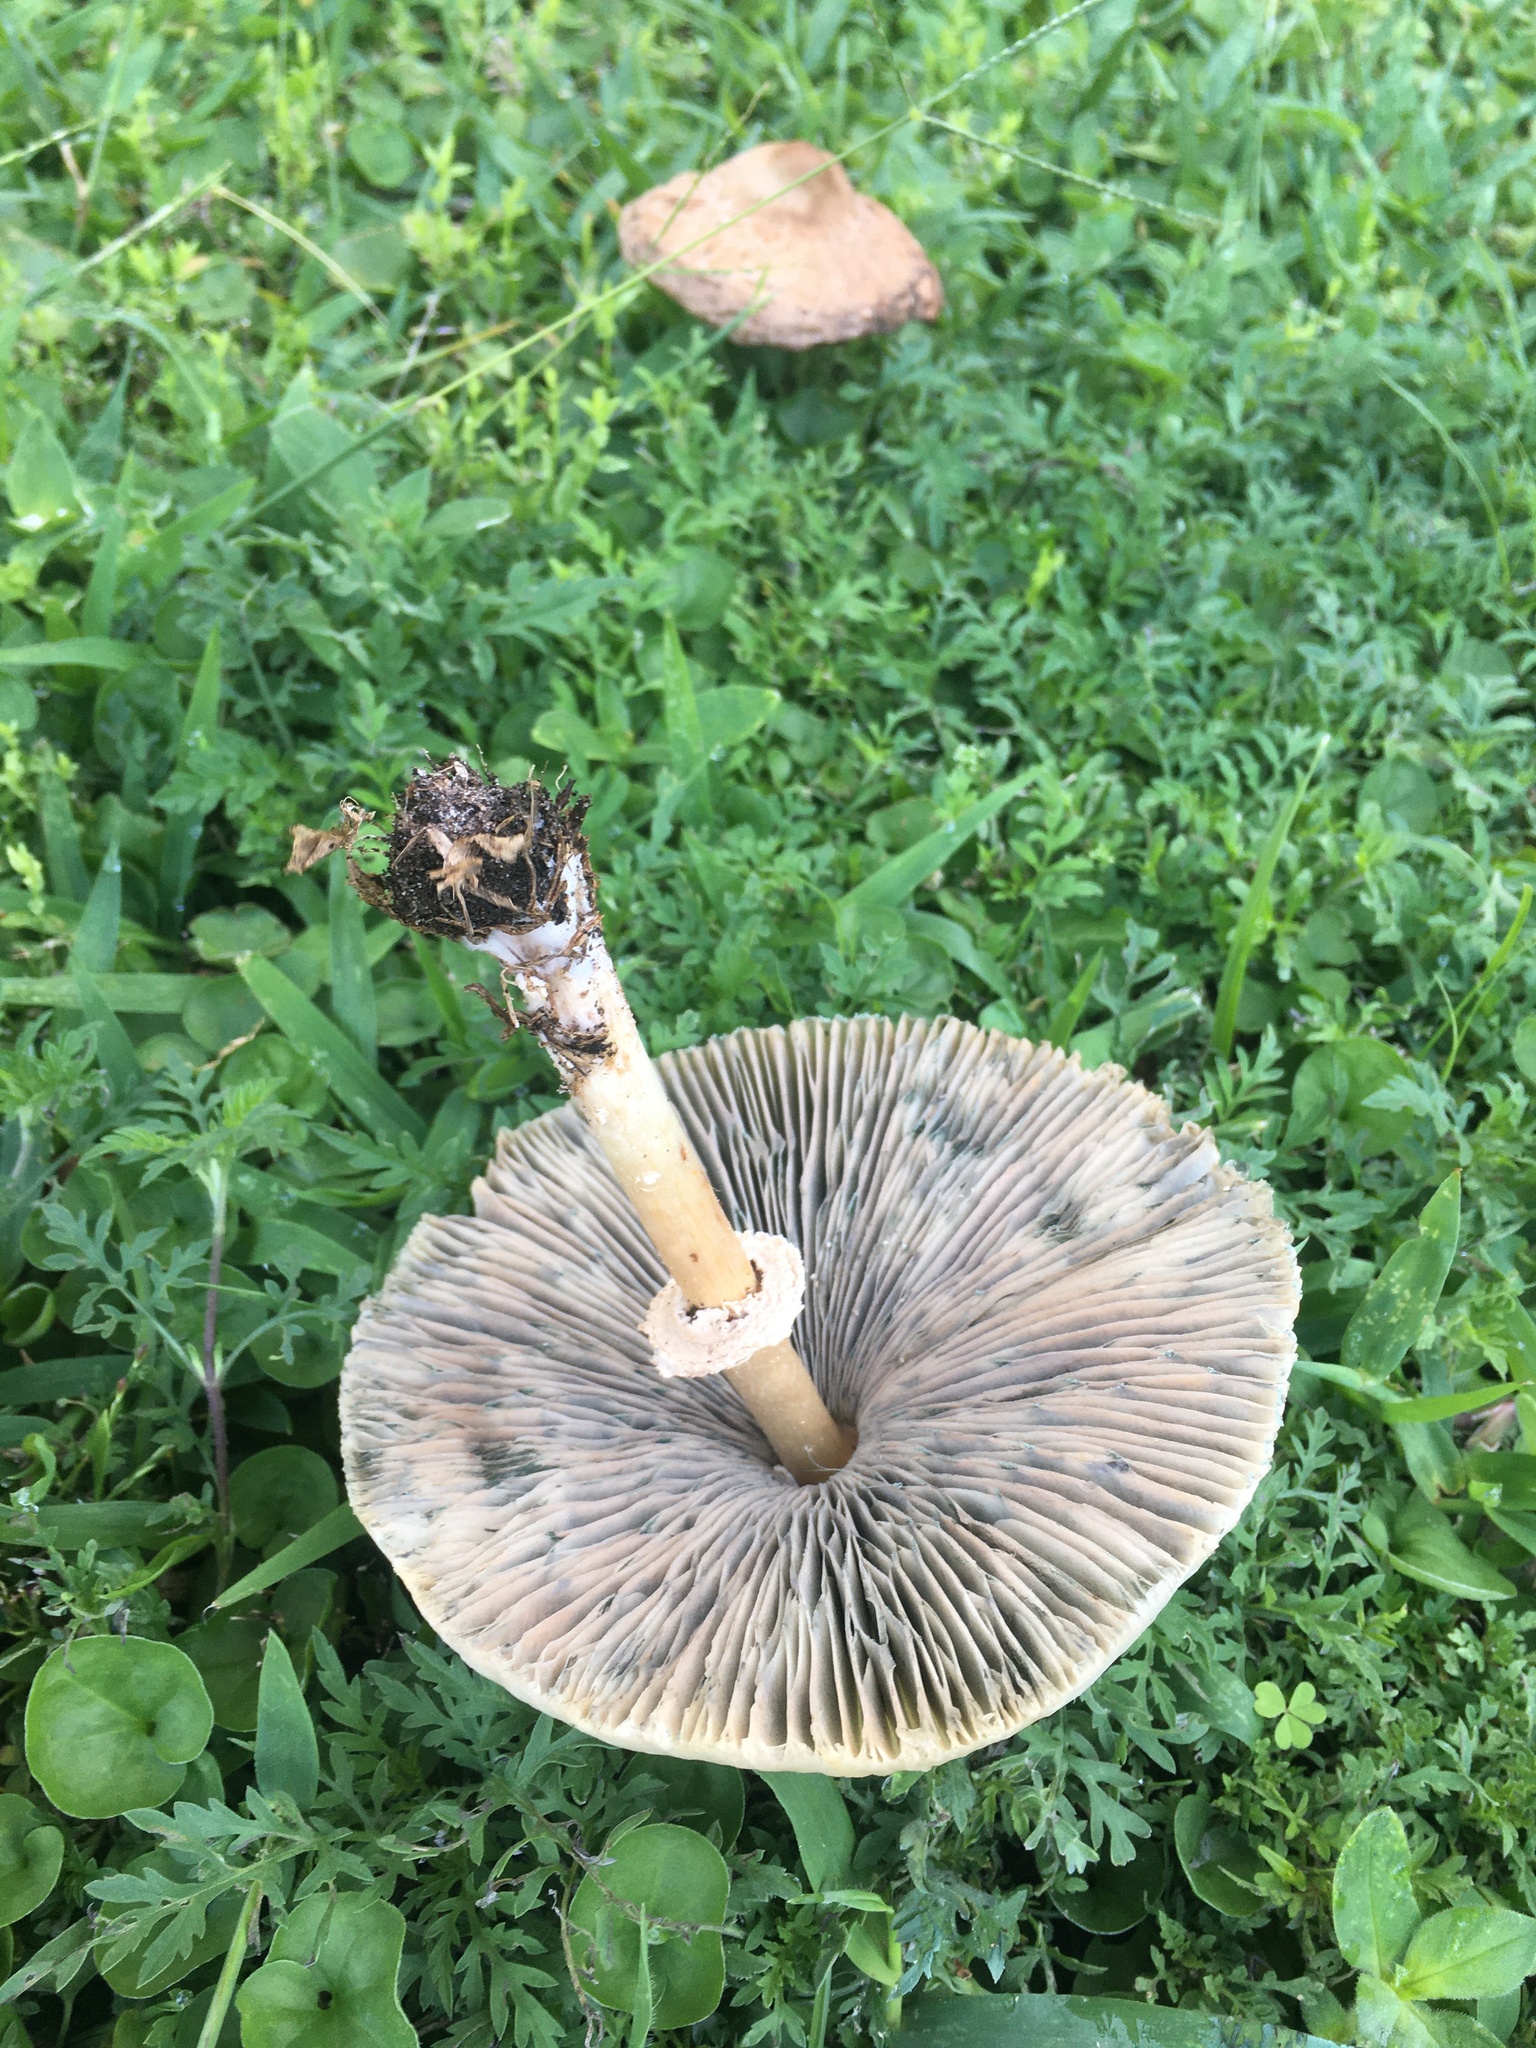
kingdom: Fungi
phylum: Basidiomycota
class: Agaricomycetes
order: Agaricales
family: Agaricaceae
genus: Chlorophyllum
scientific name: Chlorophyllum molybdites
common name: False parasol
